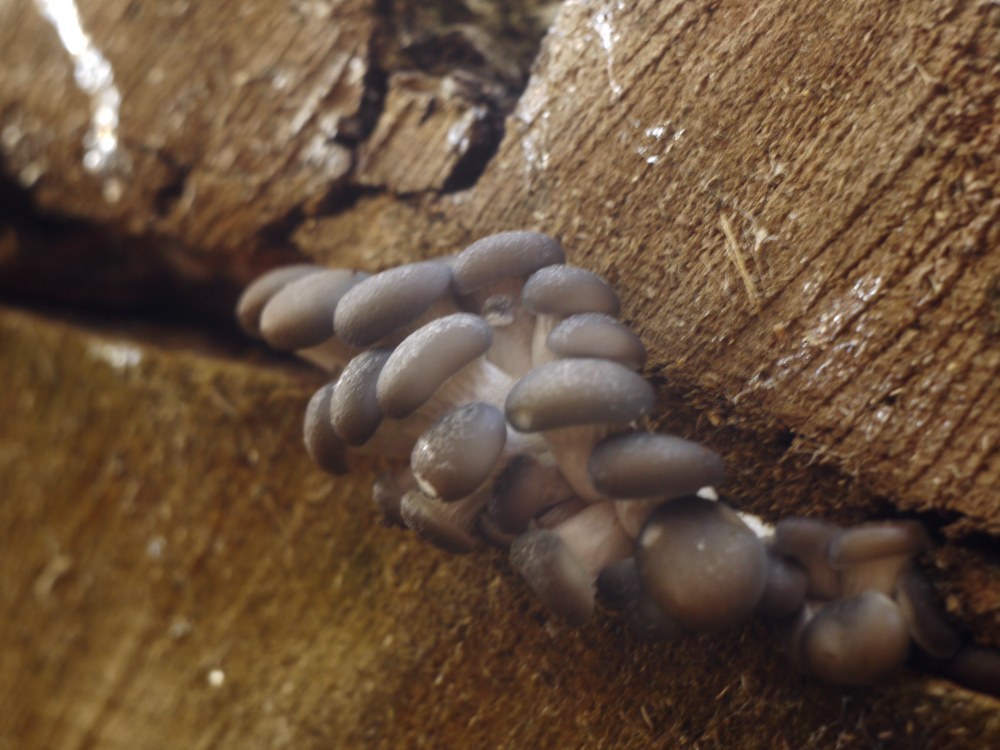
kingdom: Fungi
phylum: Basidiomycota
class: Agaricomycetes
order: Agaricales
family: Pleurotaceae
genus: Pleurotus
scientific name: Pleurotus ostreatus
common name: Oyster mushroom
